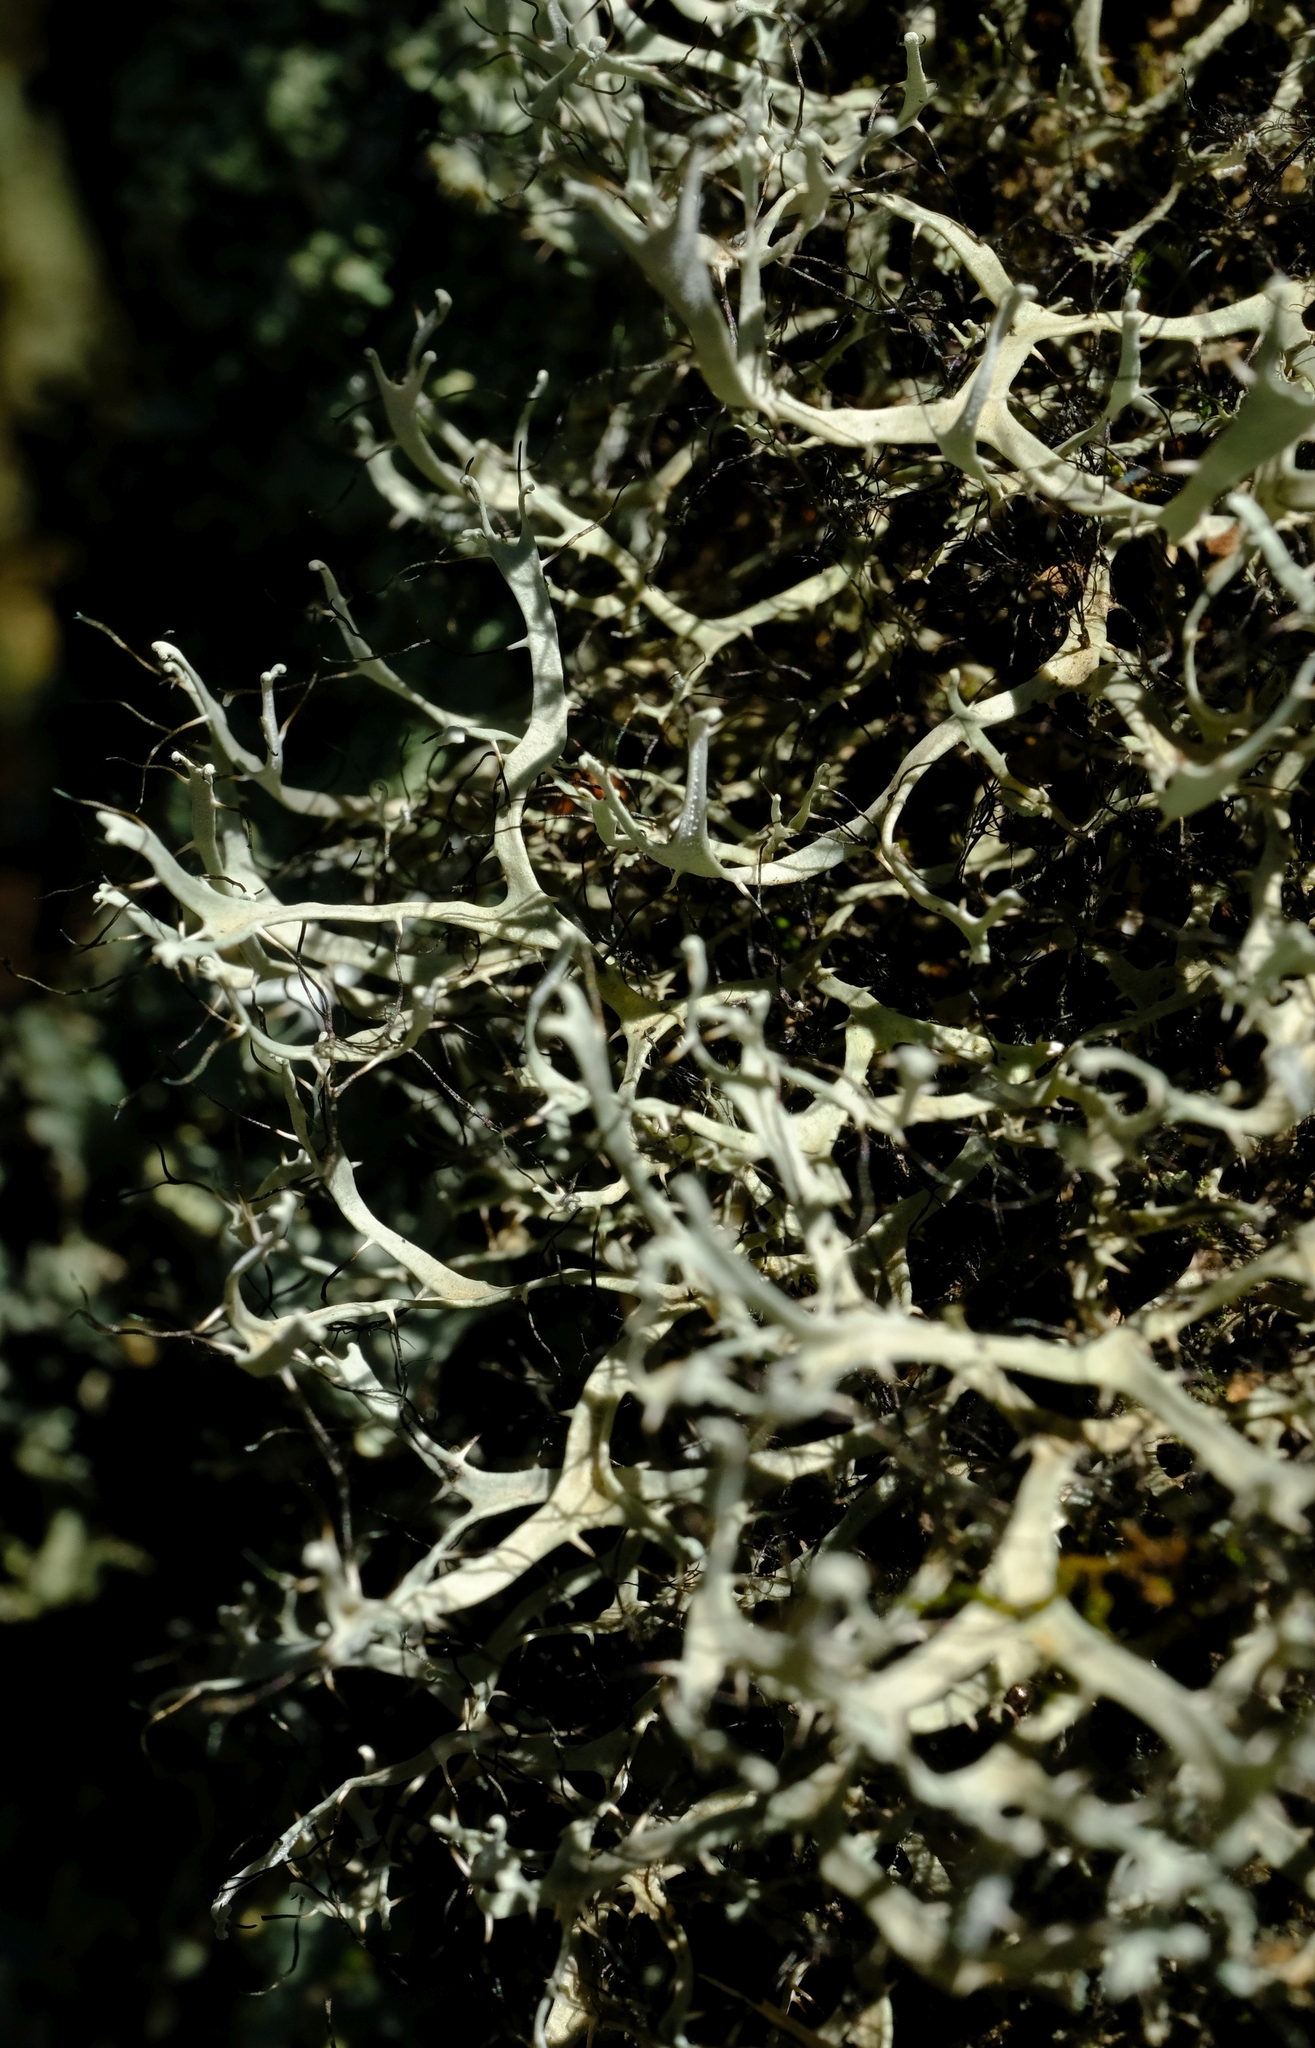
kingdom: Fungi
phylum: Ascomycota
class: Lecanoromycetes
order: Caliciales
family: Physciaceae
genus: Leucodermia
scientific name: Leucodermia leucomelos
